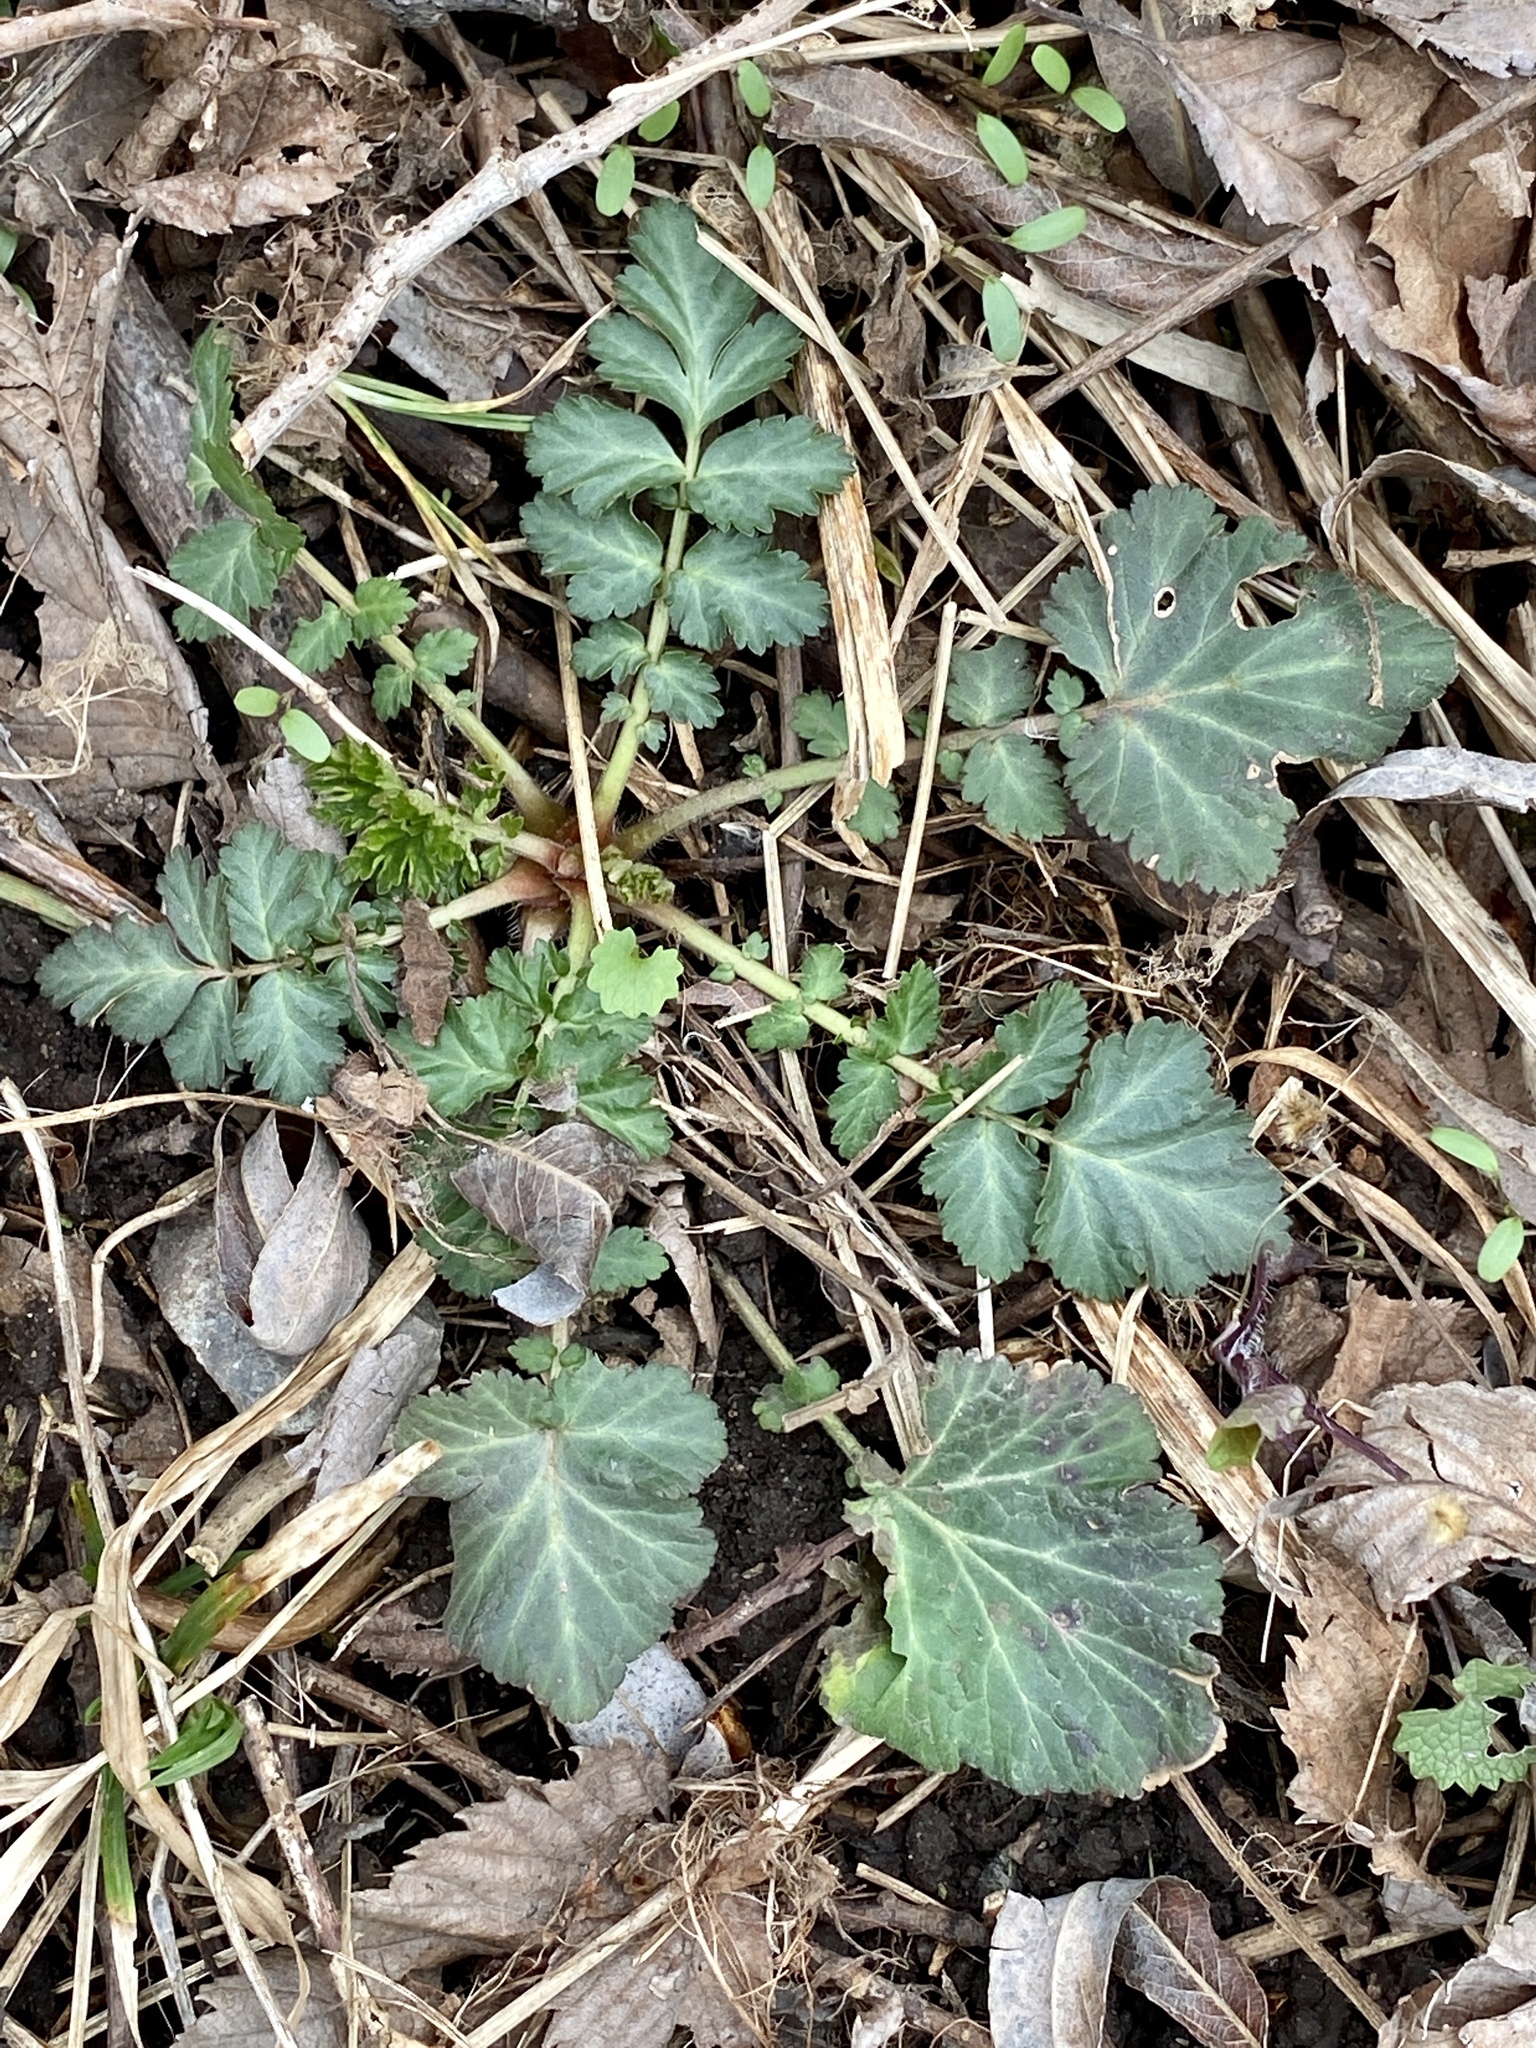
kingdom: Plantae
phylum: Tracheophyta
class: Magnoliopsida
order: Rosales
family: Rosaceae
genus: Geum
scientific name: Geum canadense
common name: White avens
